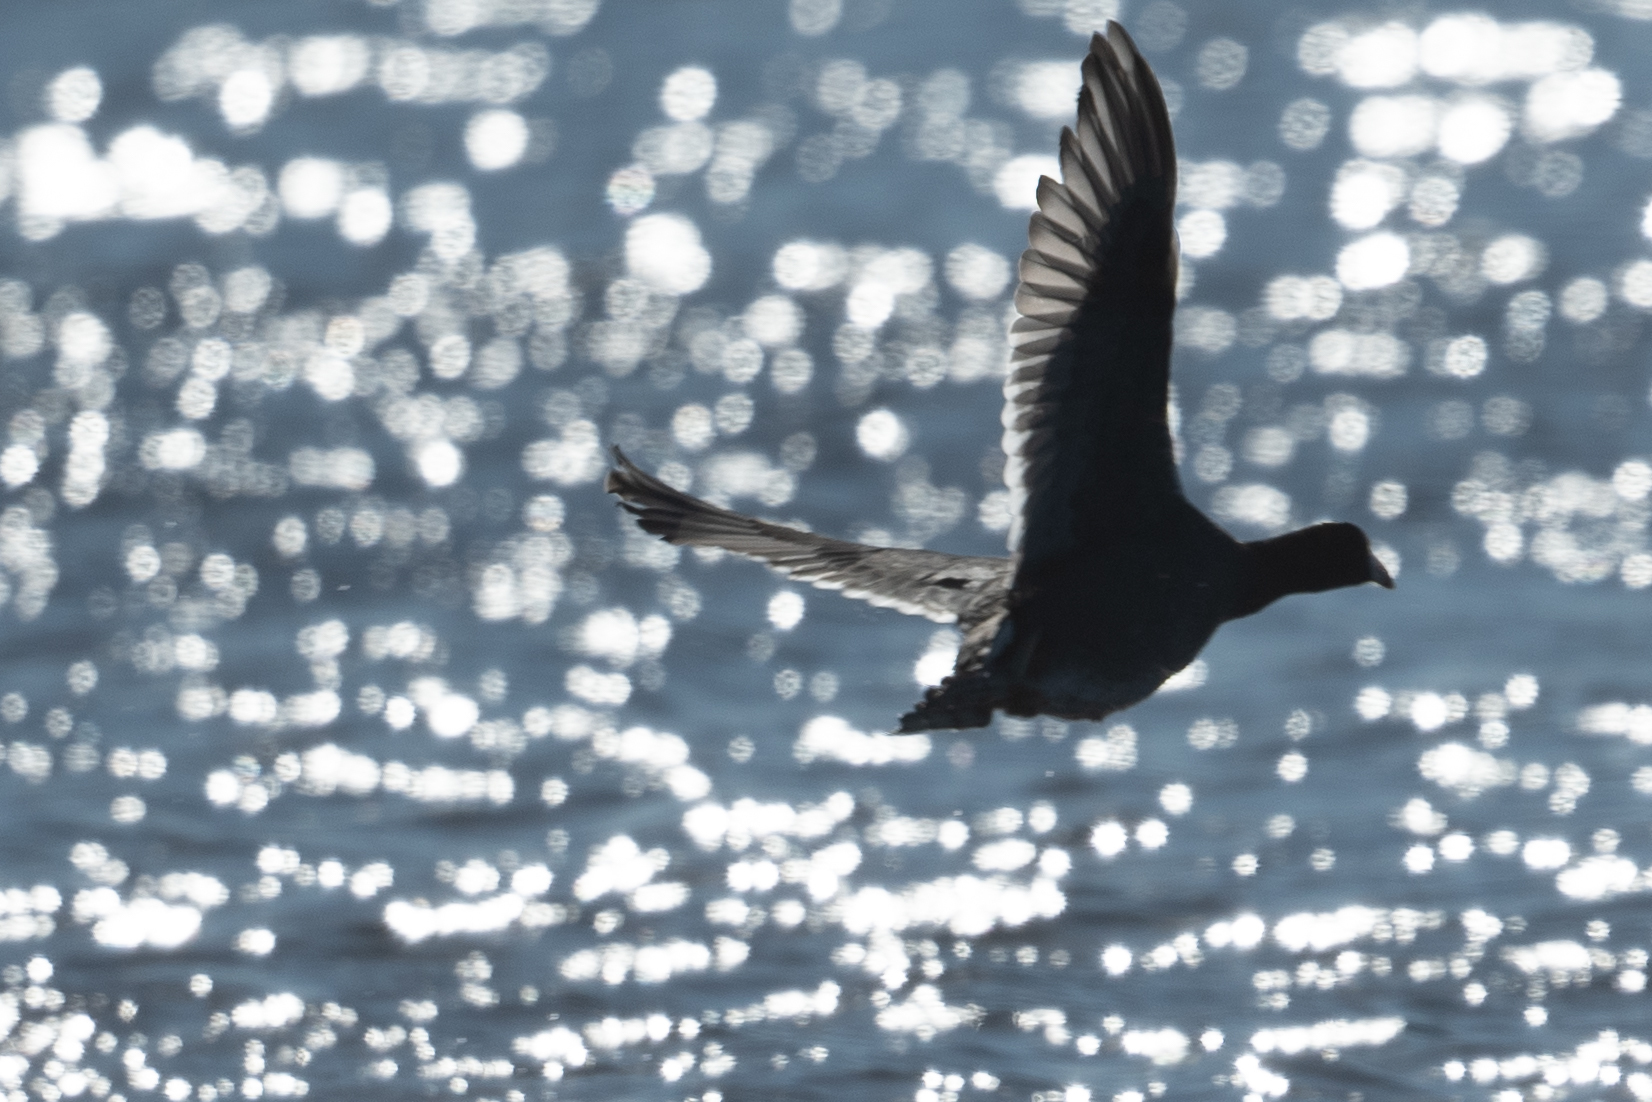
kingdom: Animalia
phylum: Chordata
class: Aves
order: Gruiformes
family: Rallidae
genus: Fulica
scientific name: Fulica americana
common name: American coot
